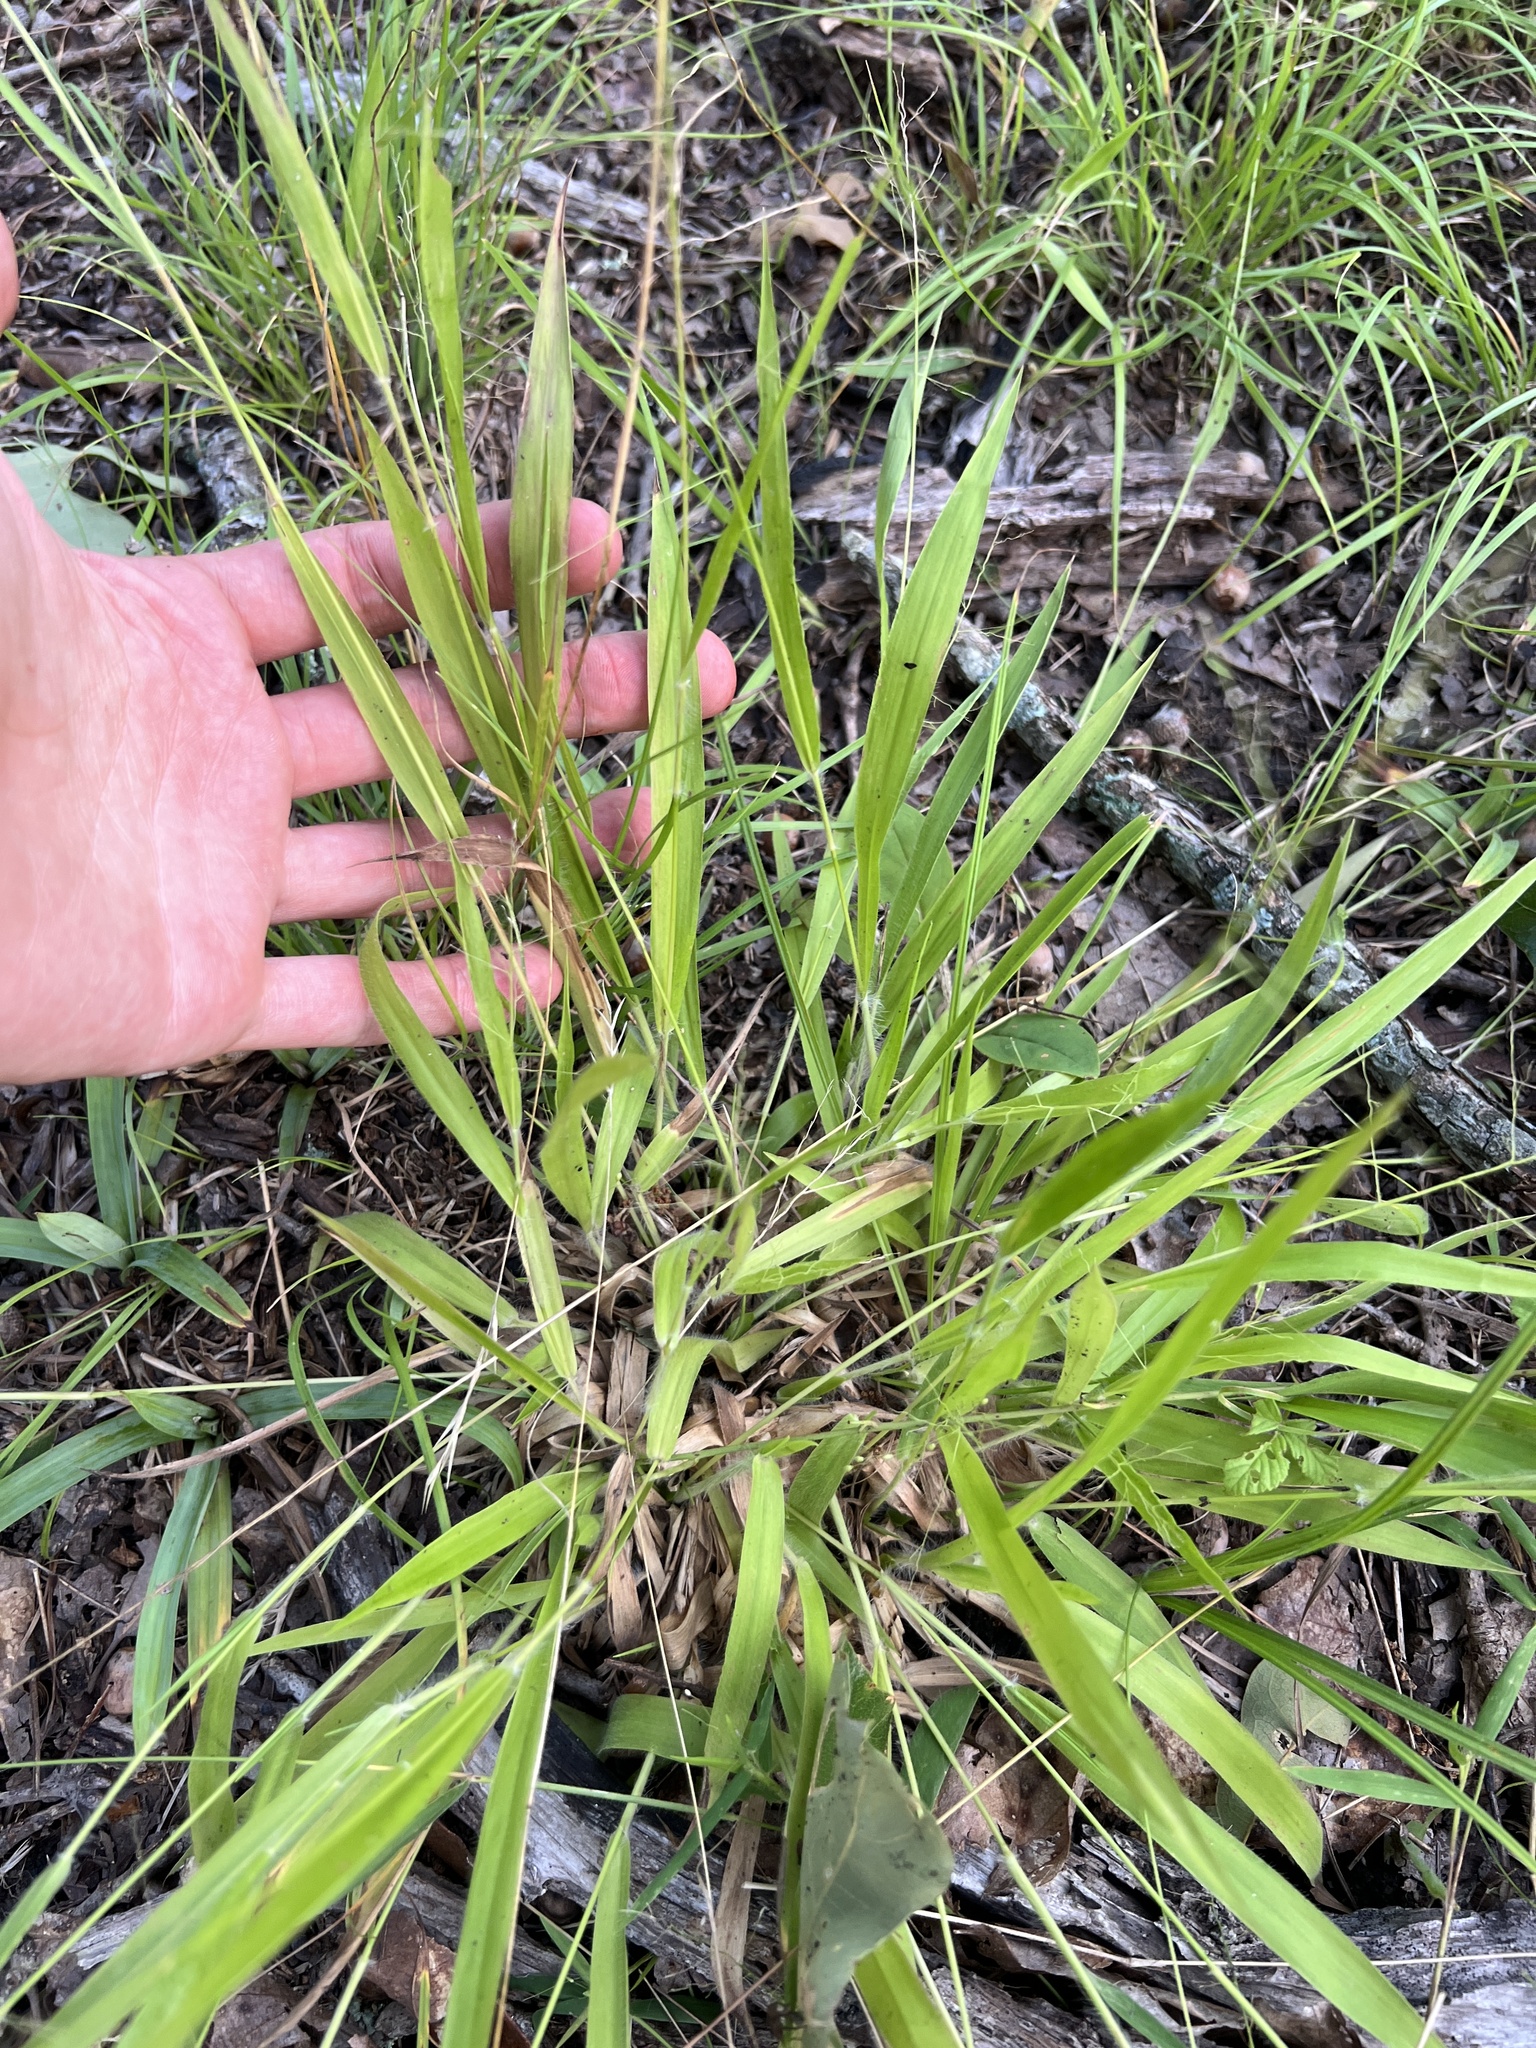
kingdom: Plantae
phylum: Tracheophyta
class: Liliopsida
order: Poales
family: Poaceae
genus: Dichanthelium
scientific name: Dichanthelium laxiflorum
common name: Soft-tuft panic grass
